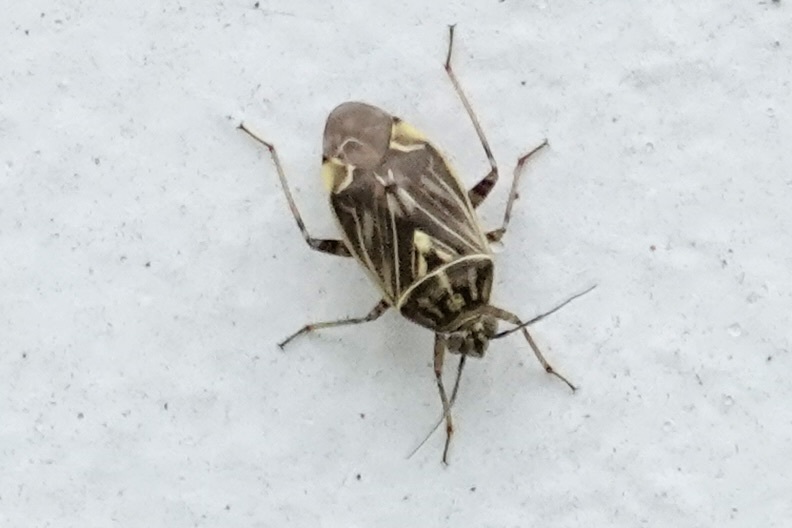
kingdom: Animalia
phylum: Arthropoda
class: Insecta
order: Hemiptera
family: Miridae
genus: Lygus
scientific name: Lygus lineolaris
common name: North american tarnished plant bug
